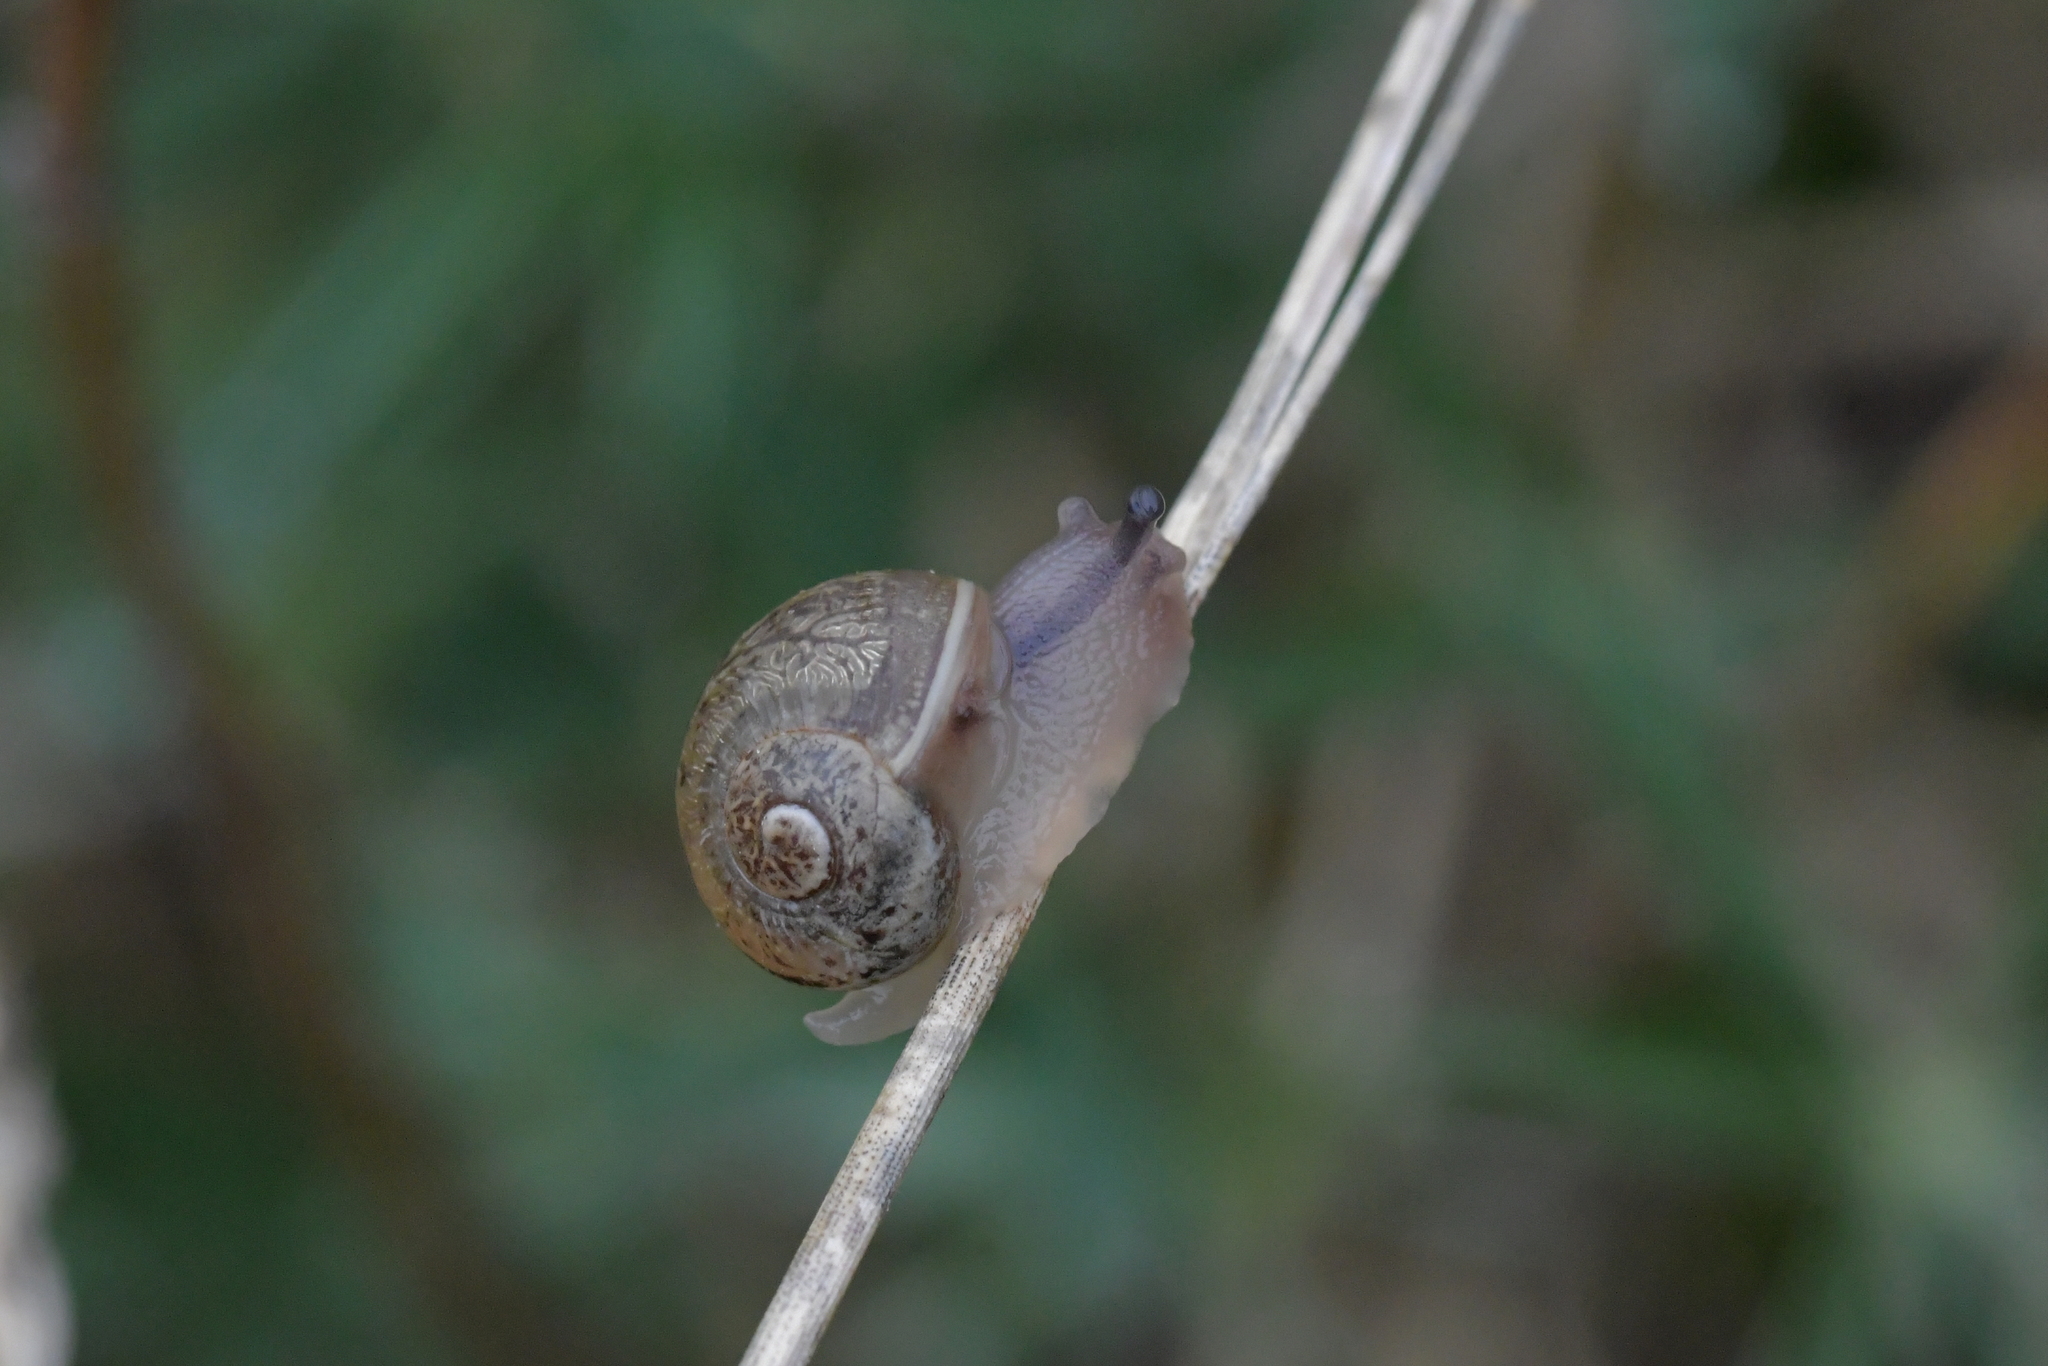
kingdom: Animalia
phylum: Mollusca
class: Gastropoda
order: Stylommatophora
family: Helicidae
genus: Cornu
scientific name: Cornu aspersum
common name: Brown garden snail
